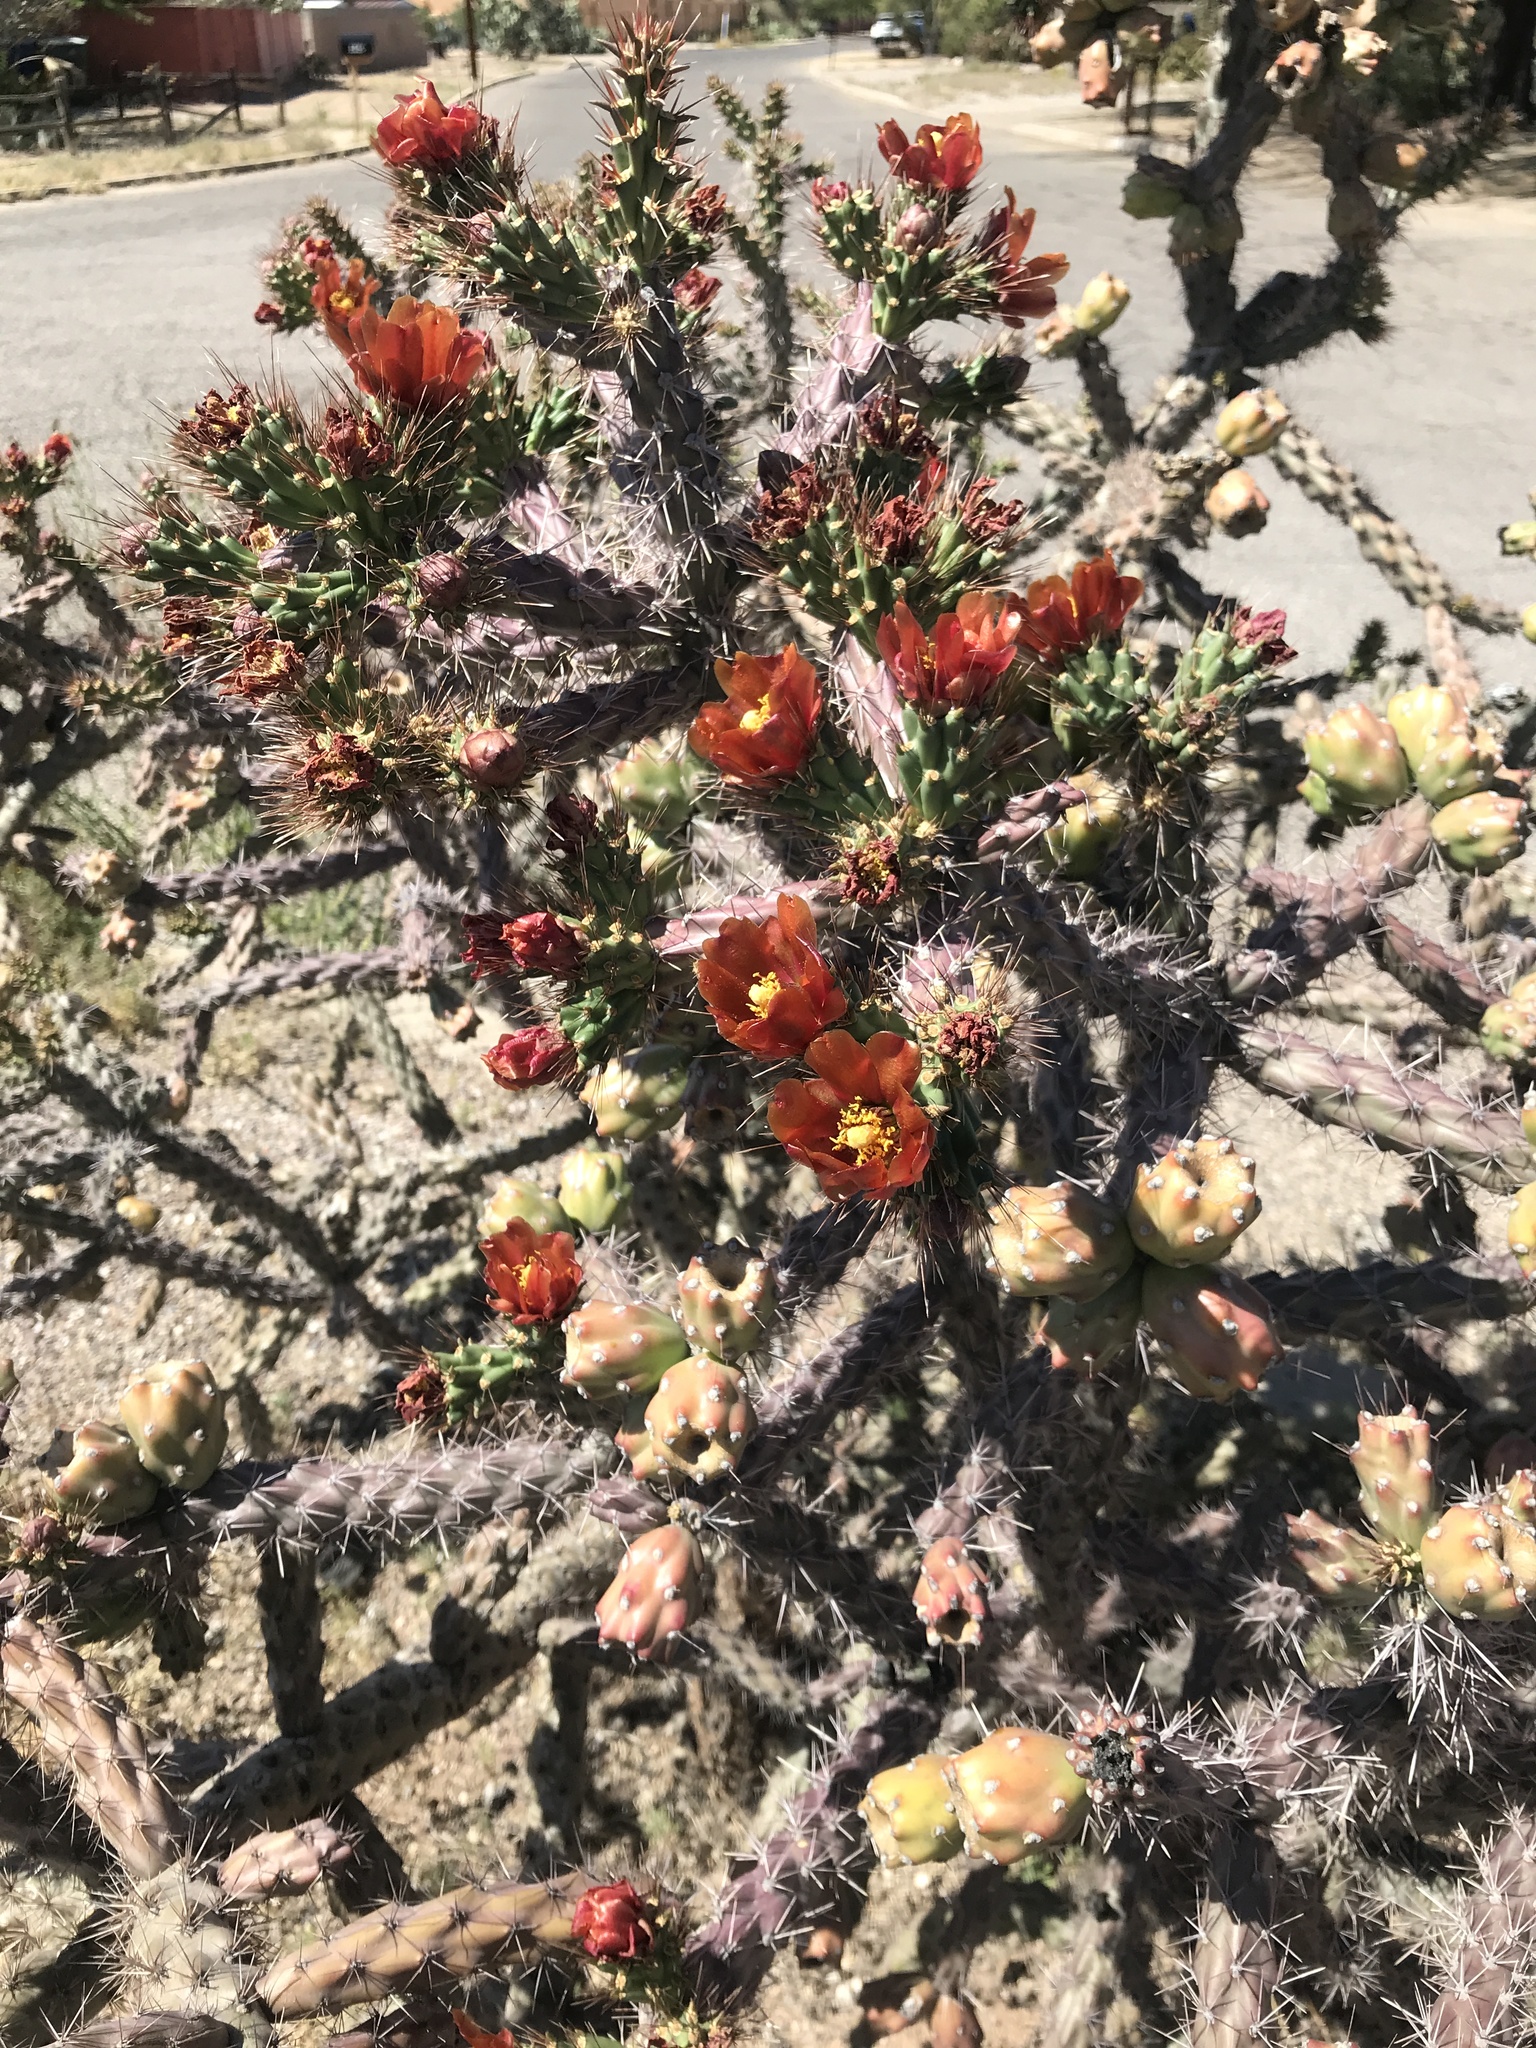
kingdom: Plantae
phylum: Tracheophyta
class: Magnoliopsida
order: Caryophyllales
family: Cactaceae
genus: Cylindropuntia
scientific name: Cylindropuntia thurberi
